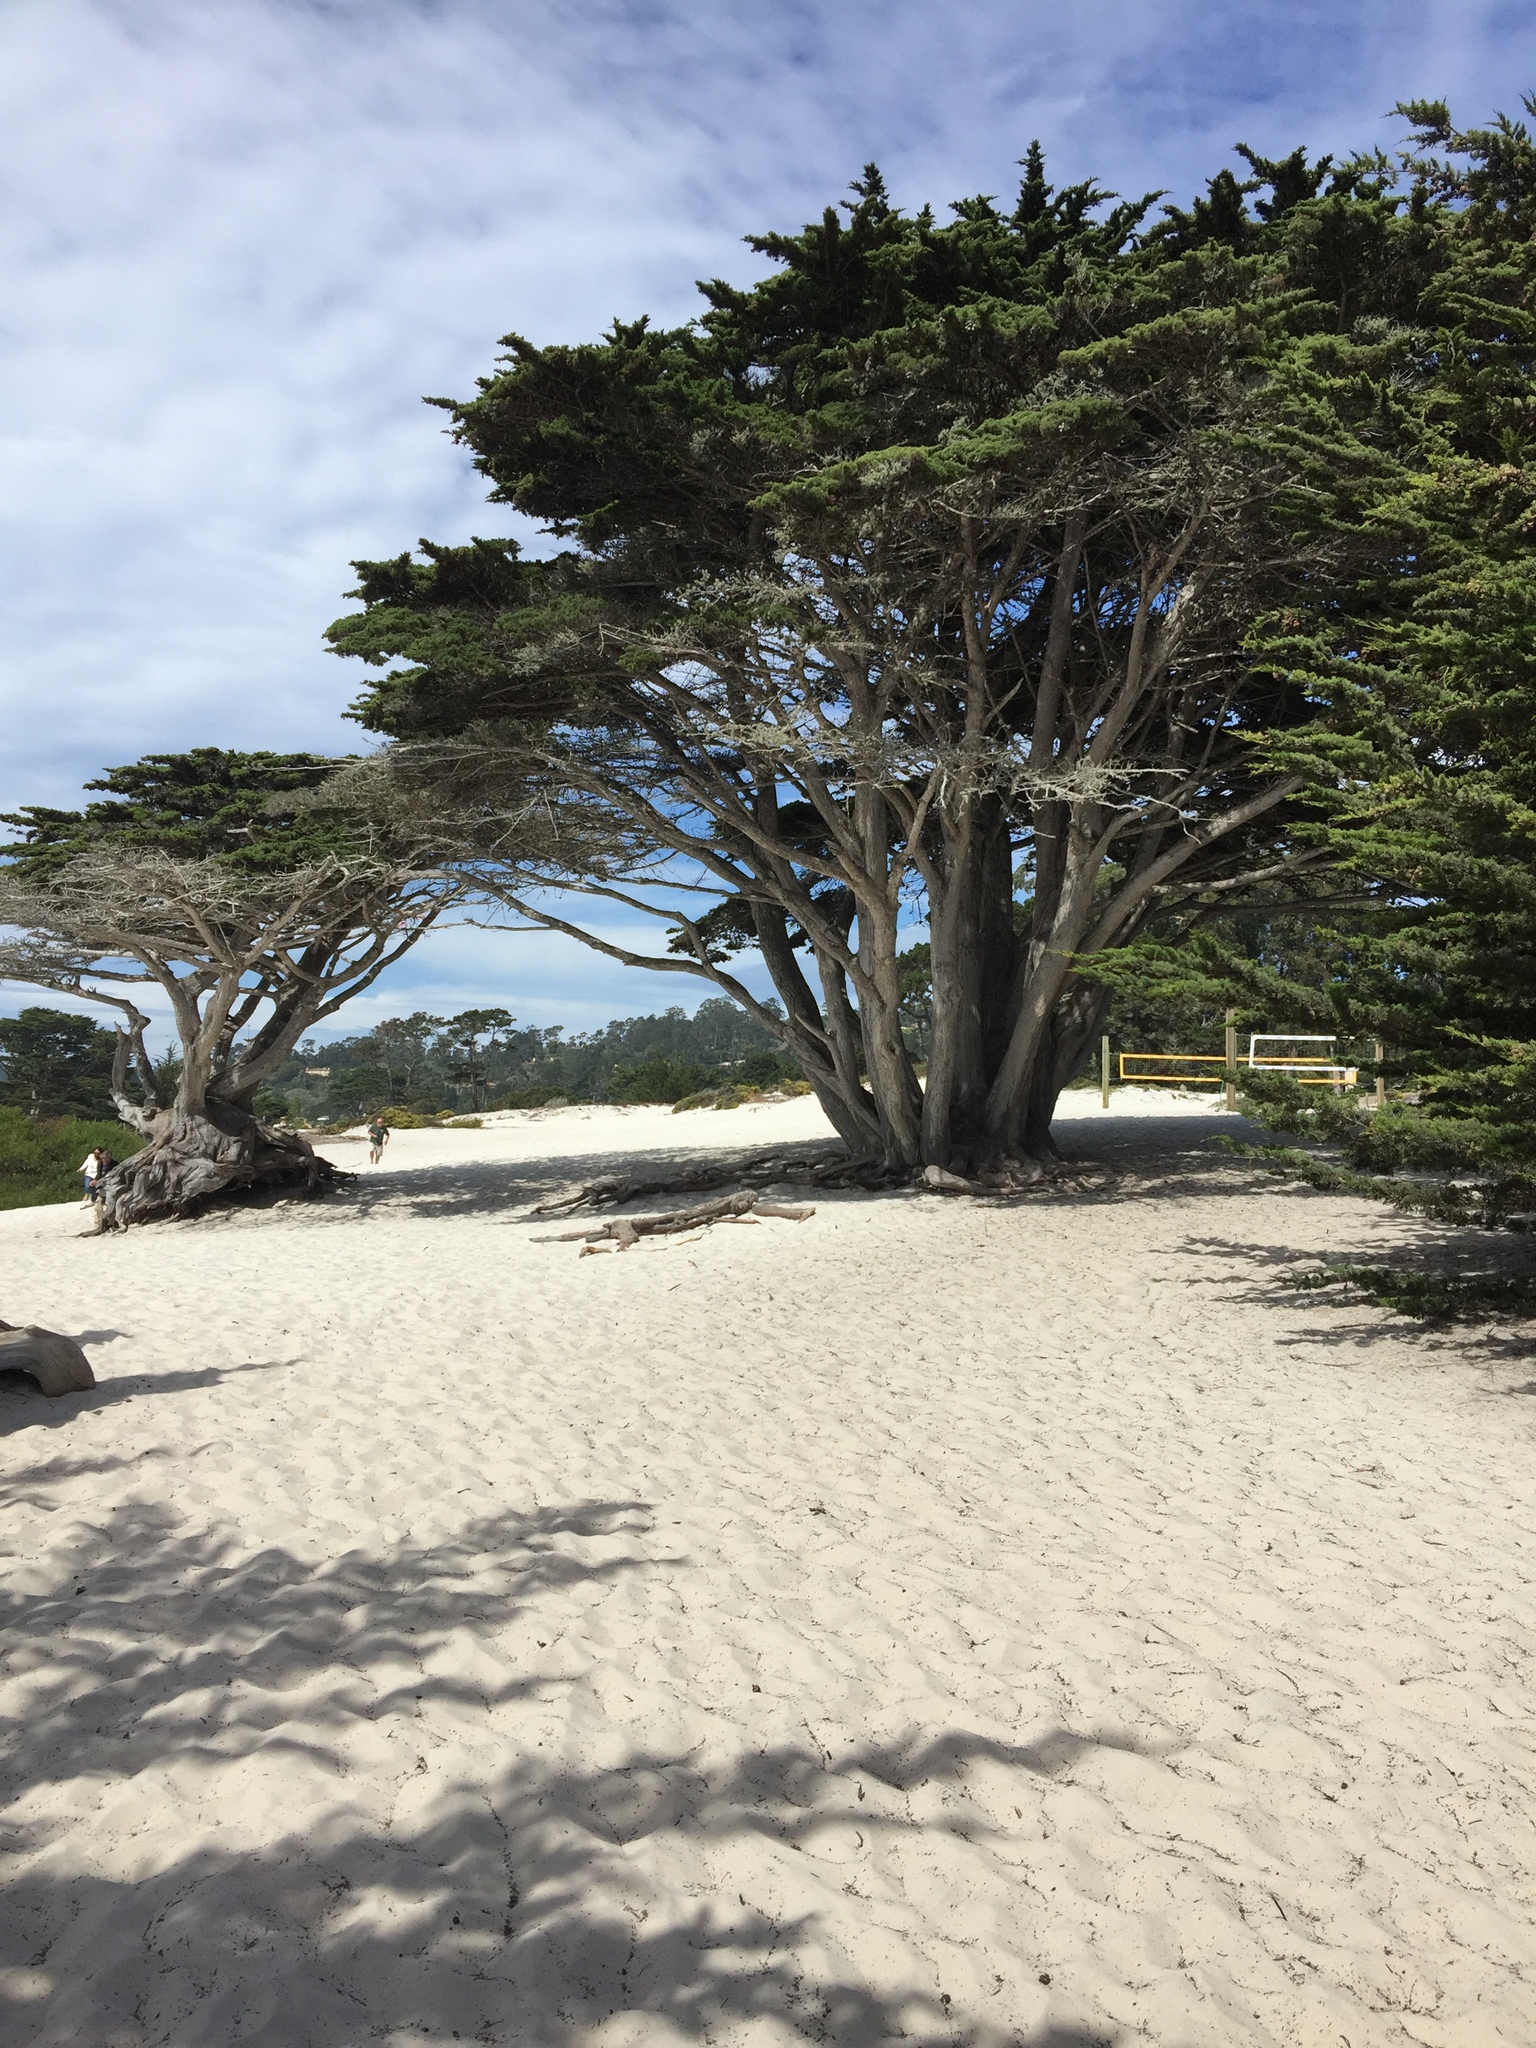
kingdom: Plantae
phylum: Tracheophyta
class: Pinopsida
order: Pinales
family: Cupressaceae
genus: Cupressus
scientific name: Cupressus macrocarpa
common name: Monterey cypress
